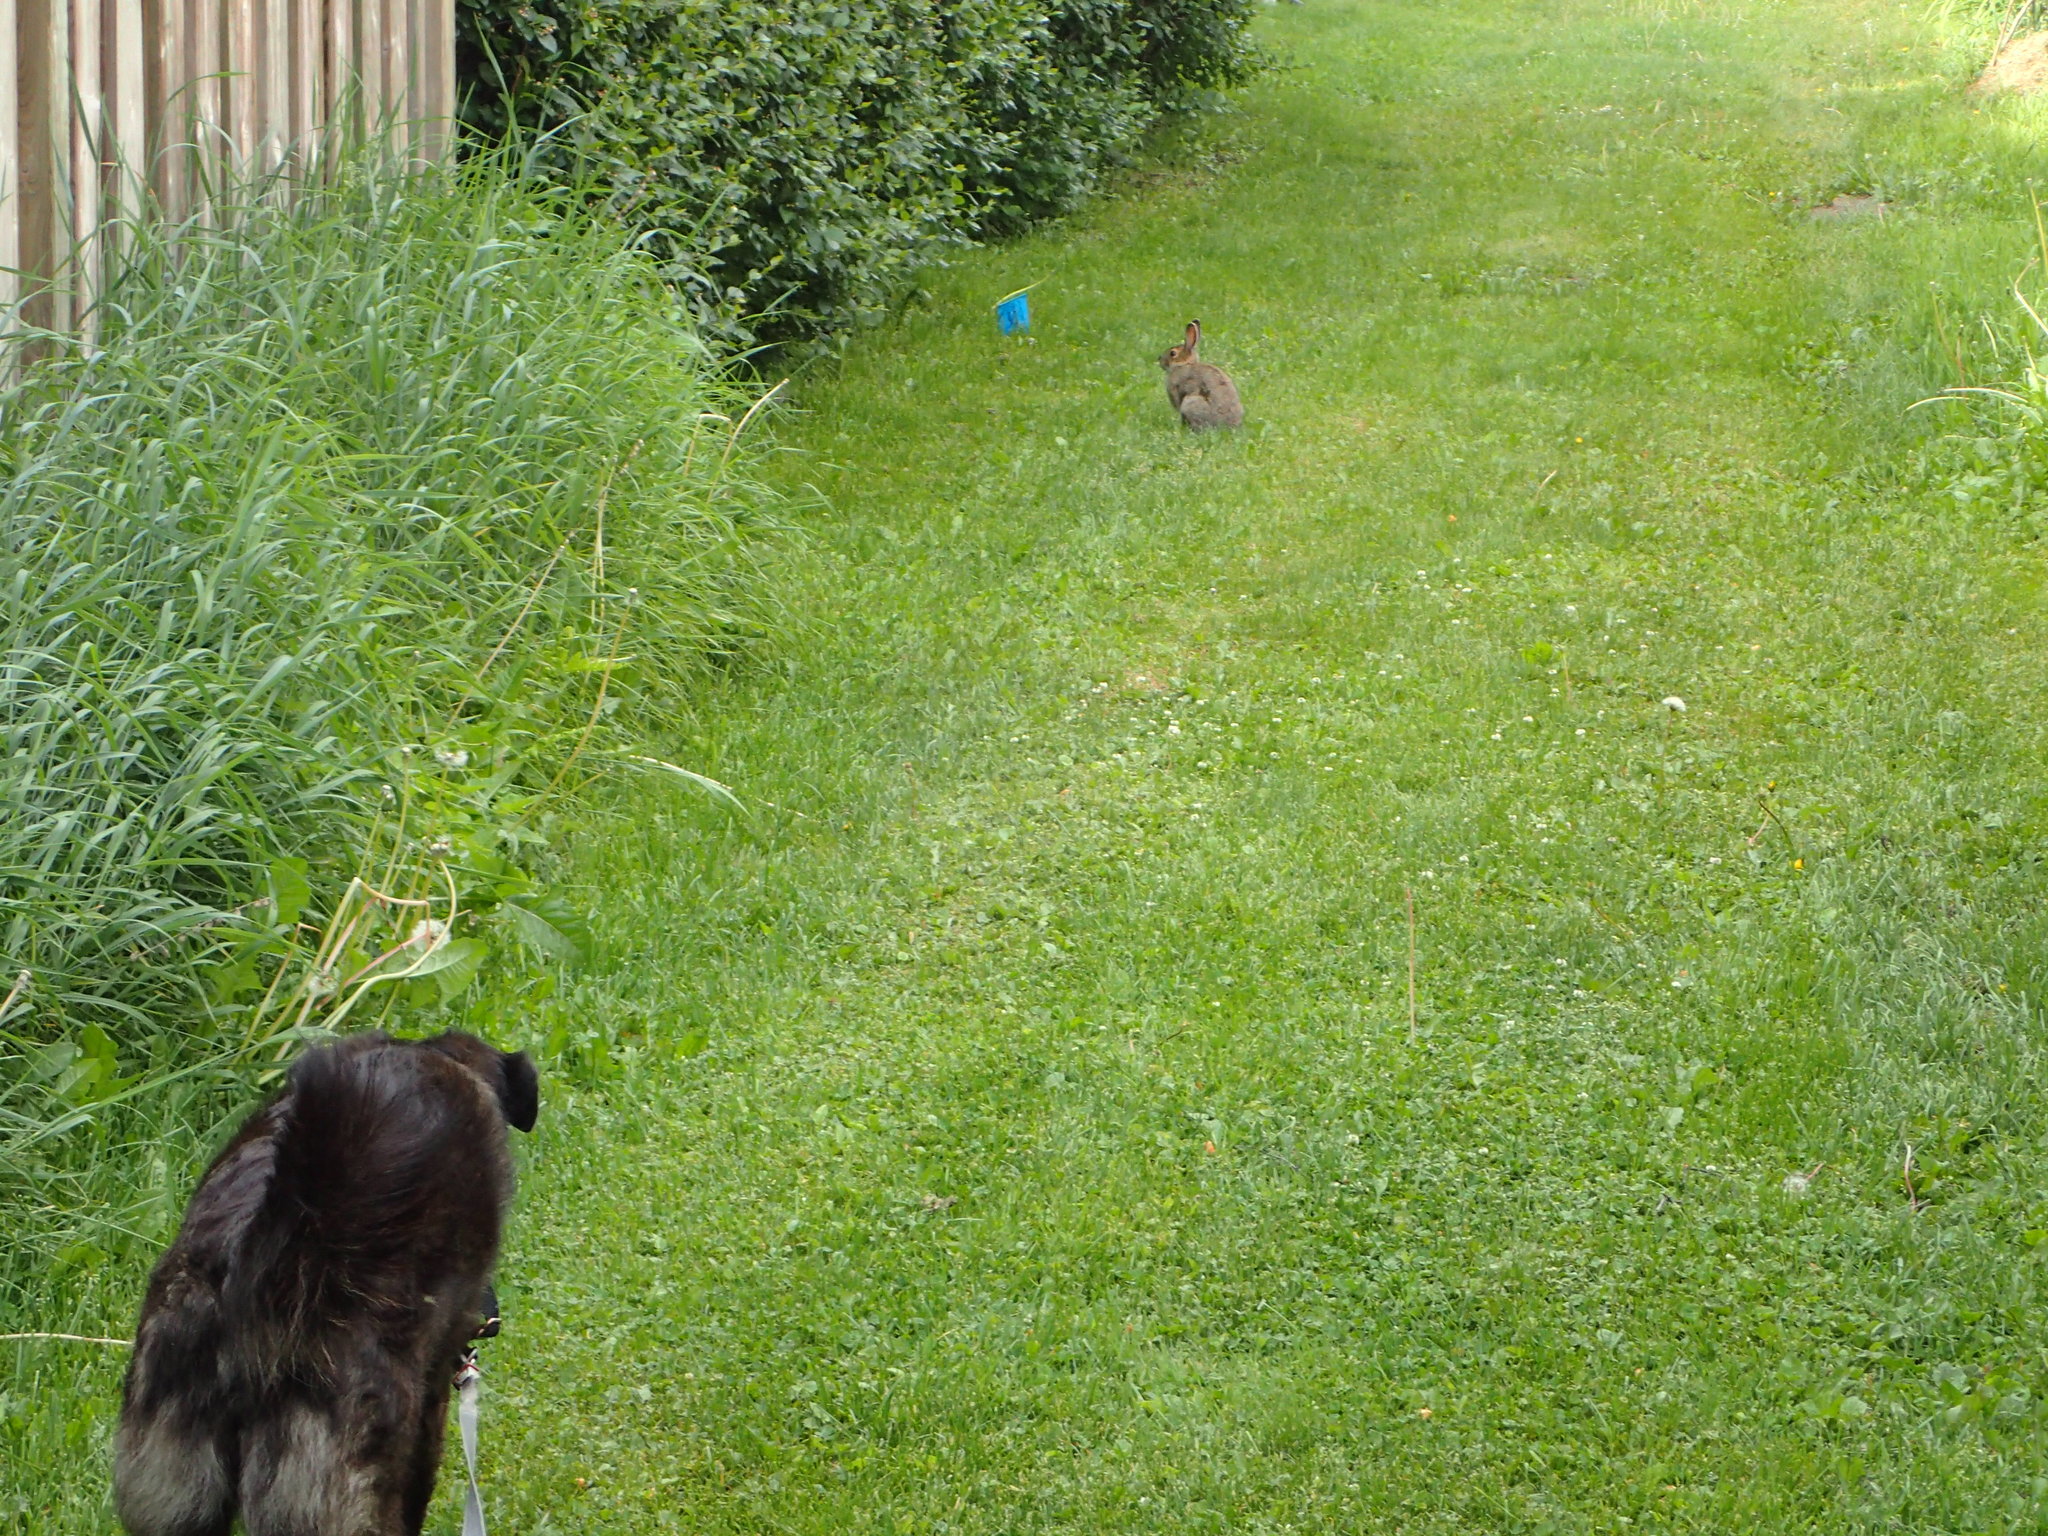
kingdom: Animalia
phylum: Chordata
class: Mammalia
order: Lagomorpha
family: Leporidae
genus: Lepus
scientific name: Lepus americanus
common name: Snowshoe hare
